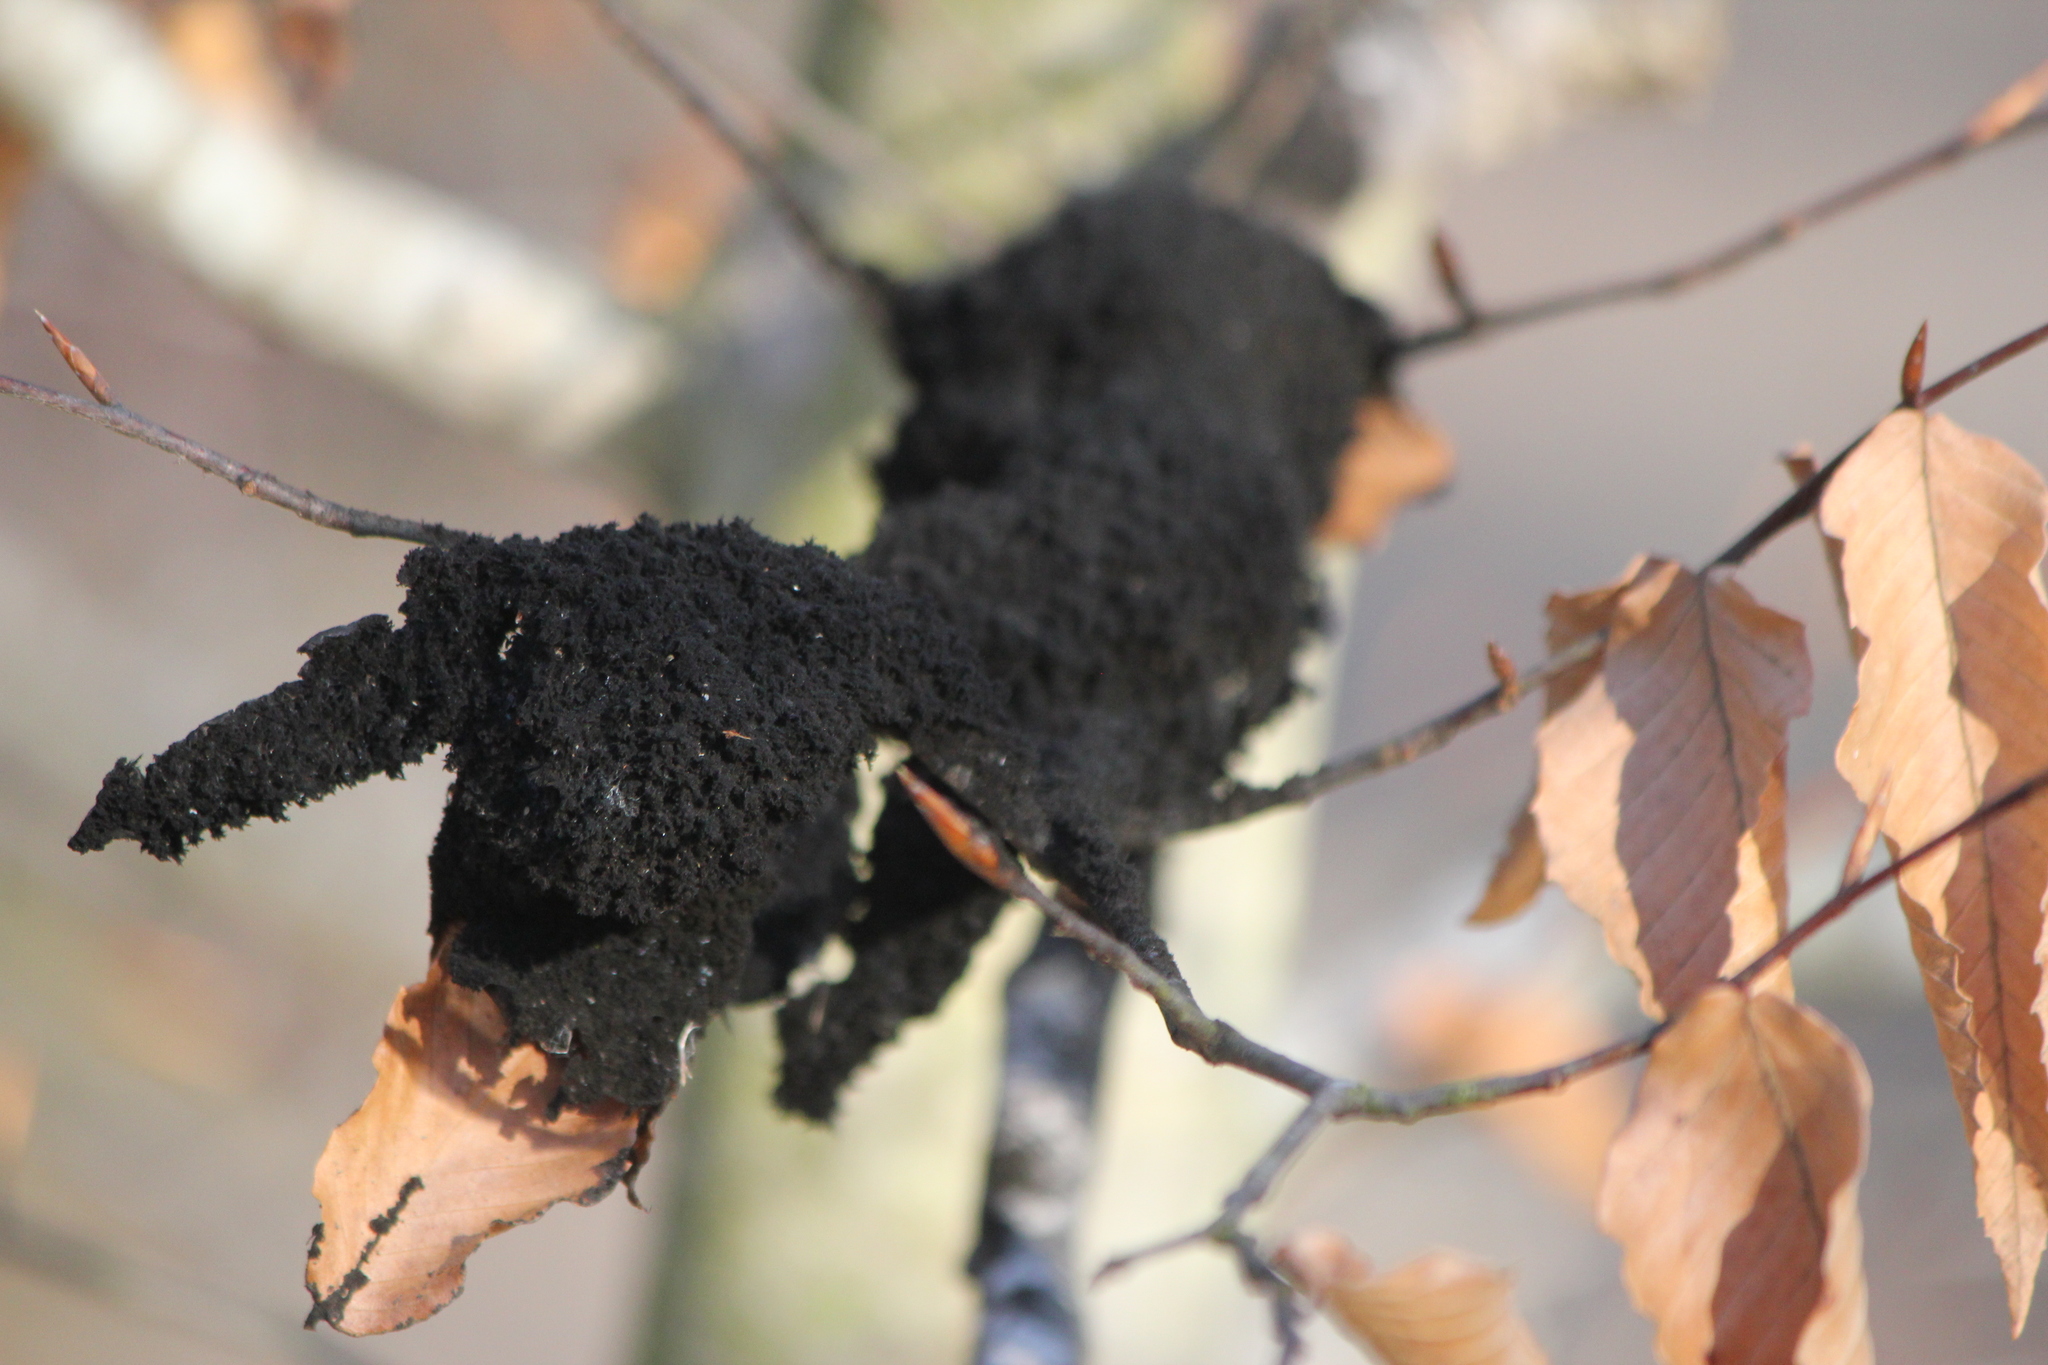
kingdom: Fungi
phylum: Ascomycota
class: Dothideomycetes
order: Capnodiales
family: Capnodiaceae
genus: Scorias
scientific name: Scorias spongiosa
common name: Black sooty mold
